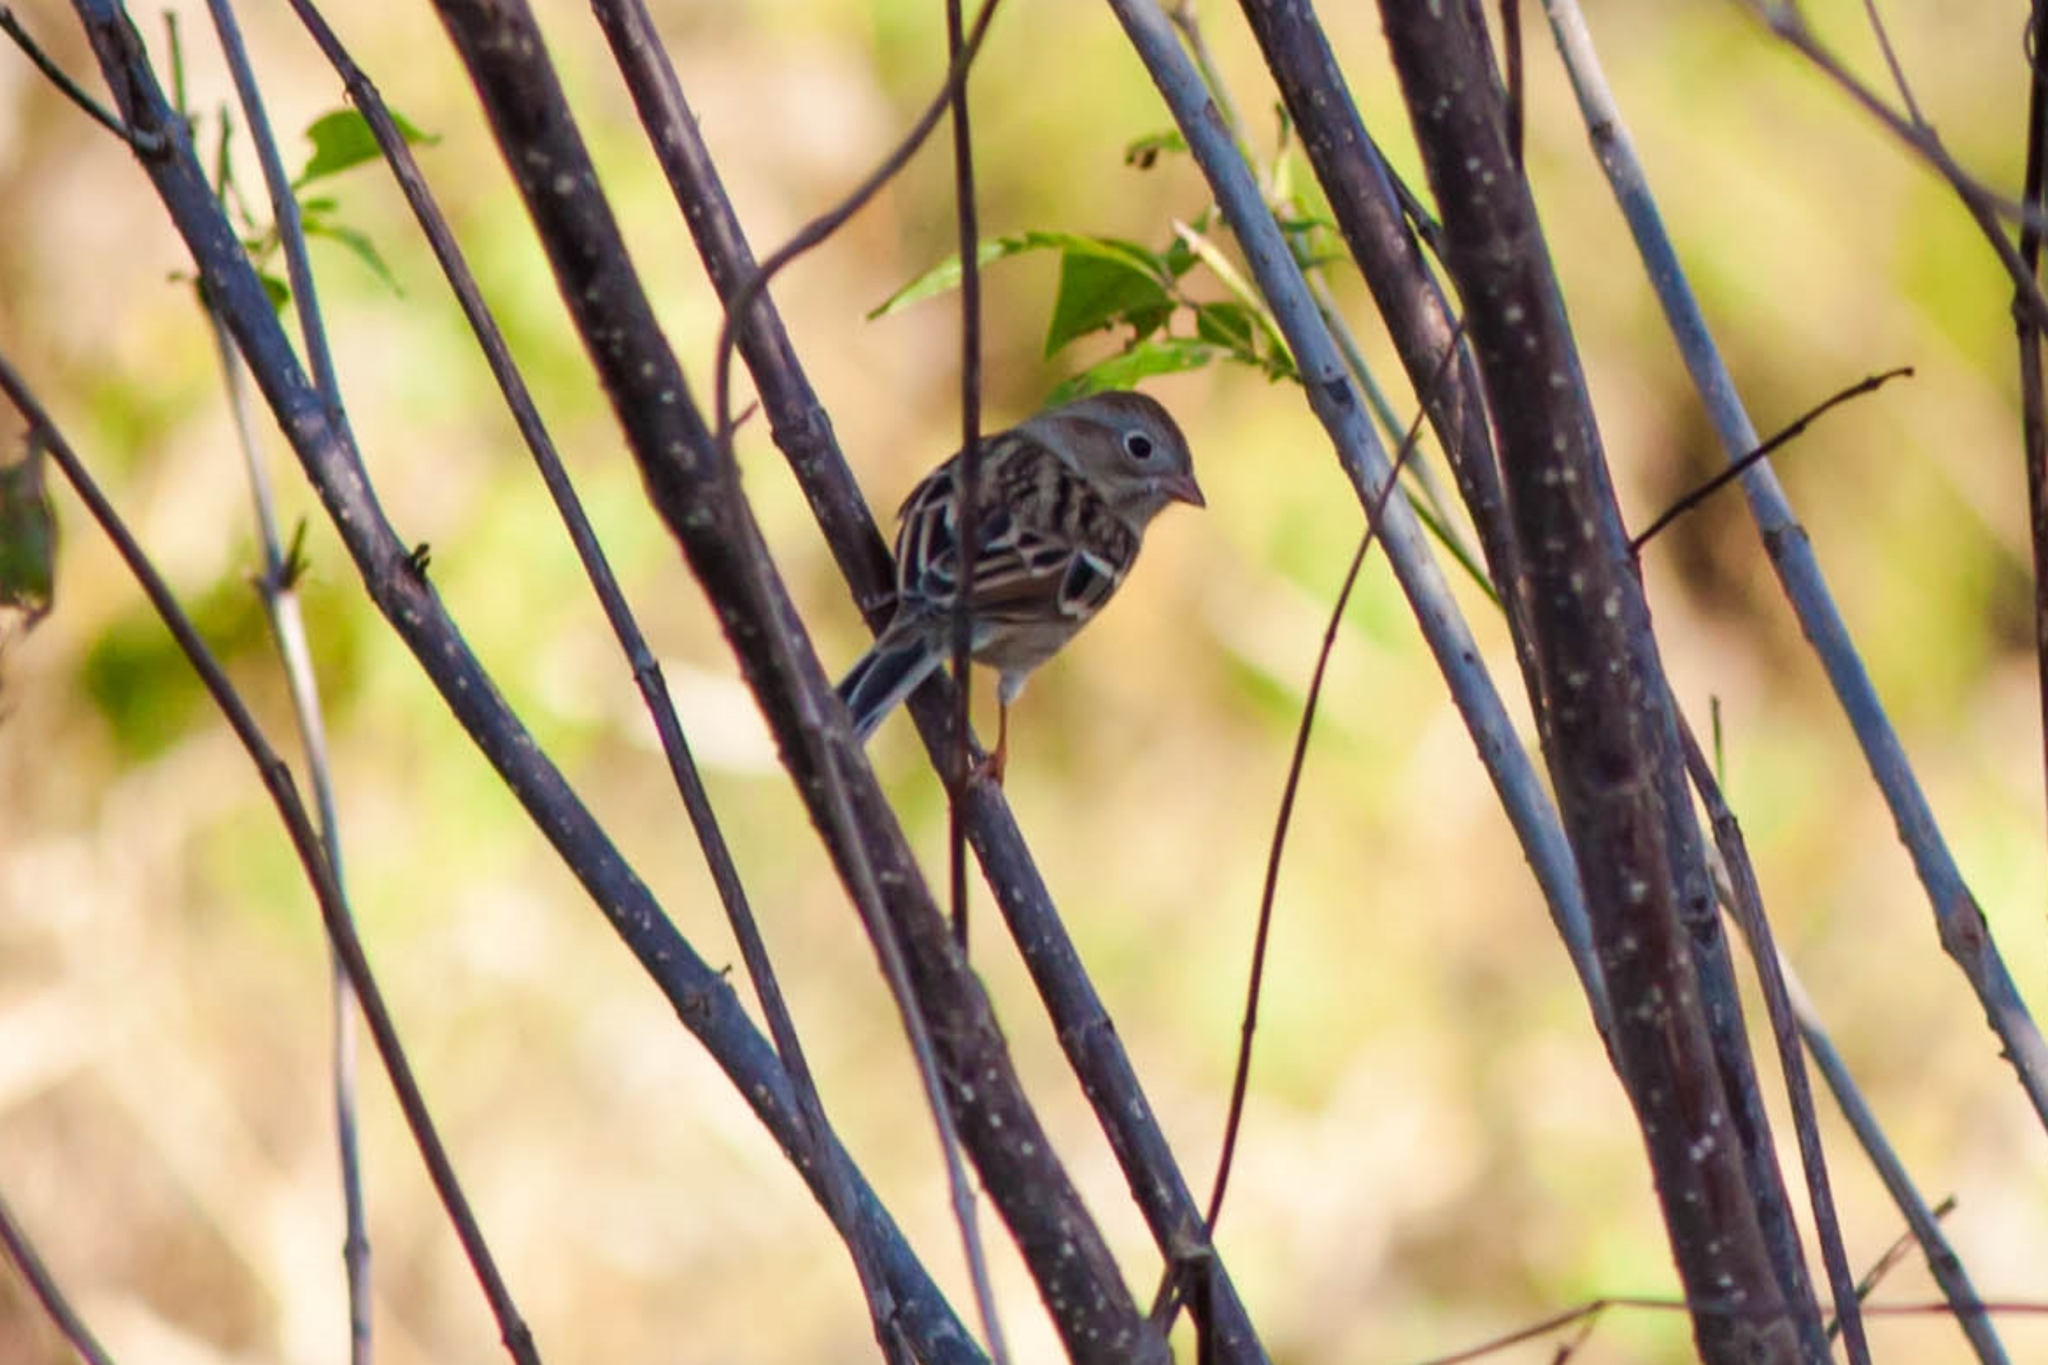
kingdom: Animalia
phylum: Chordata
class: Aves
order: Passeriformes
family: Passerellidae
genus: Spizella
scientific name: Spizella pusilla
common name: Field sparrow
